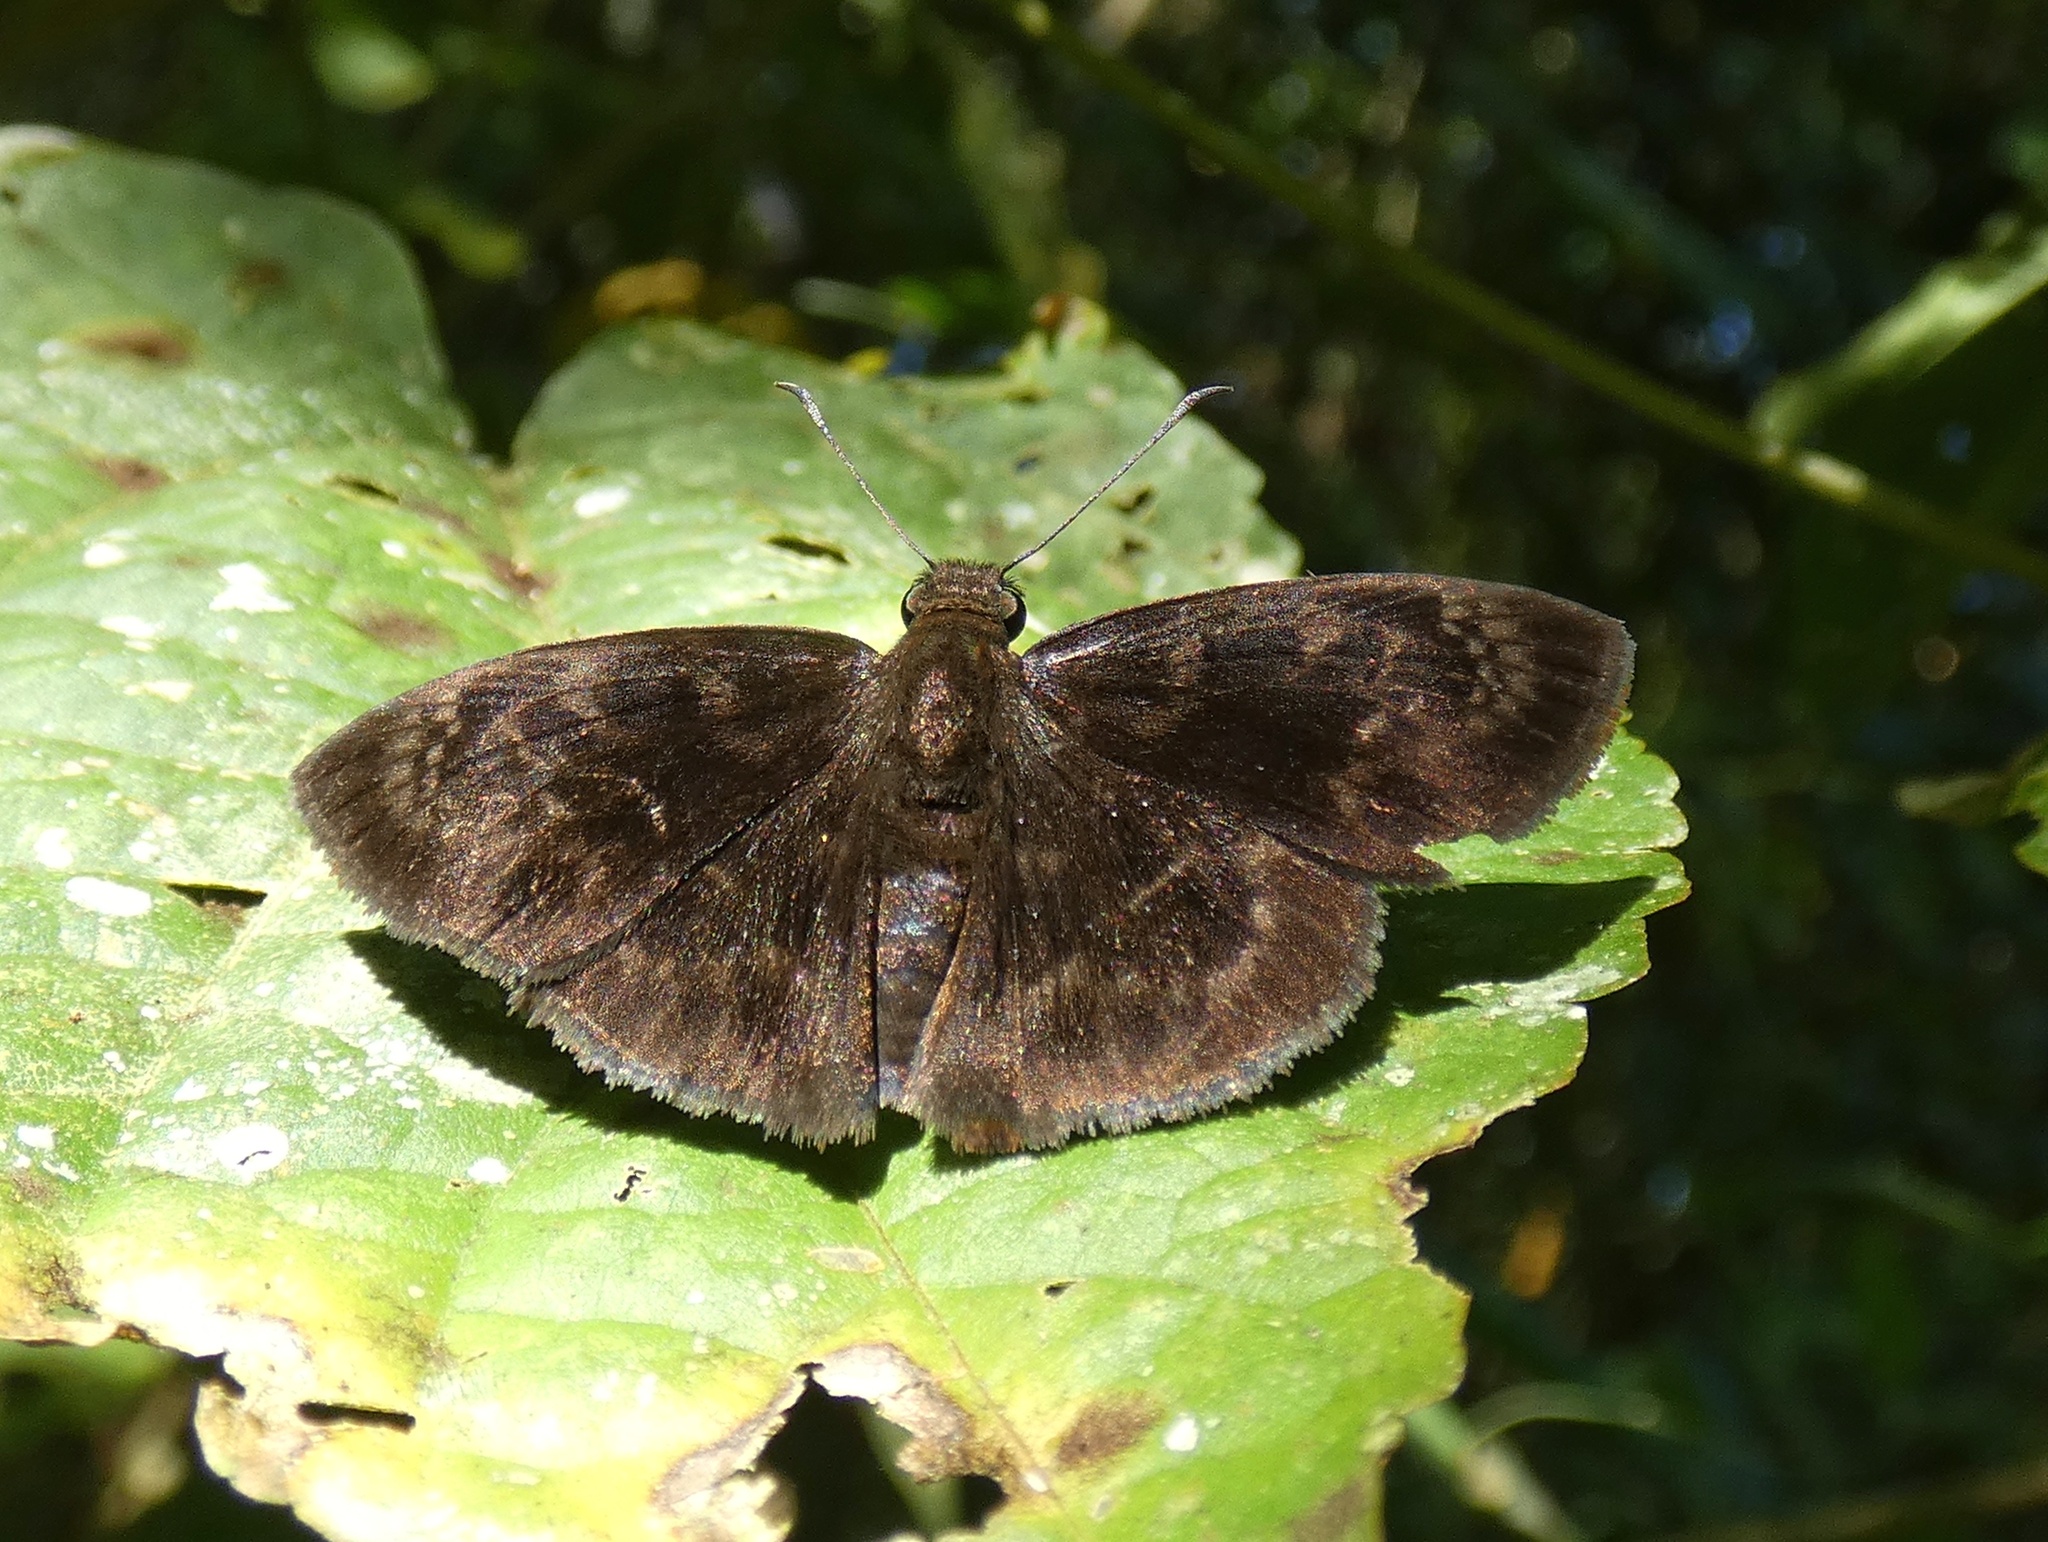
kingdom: Animalia
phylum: Arthropoda
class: Insecta
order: Lepidoptera
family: Hesperiidae
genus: Ouleus
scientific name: Ouleus fridericus
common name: Fridericus spreadwing
